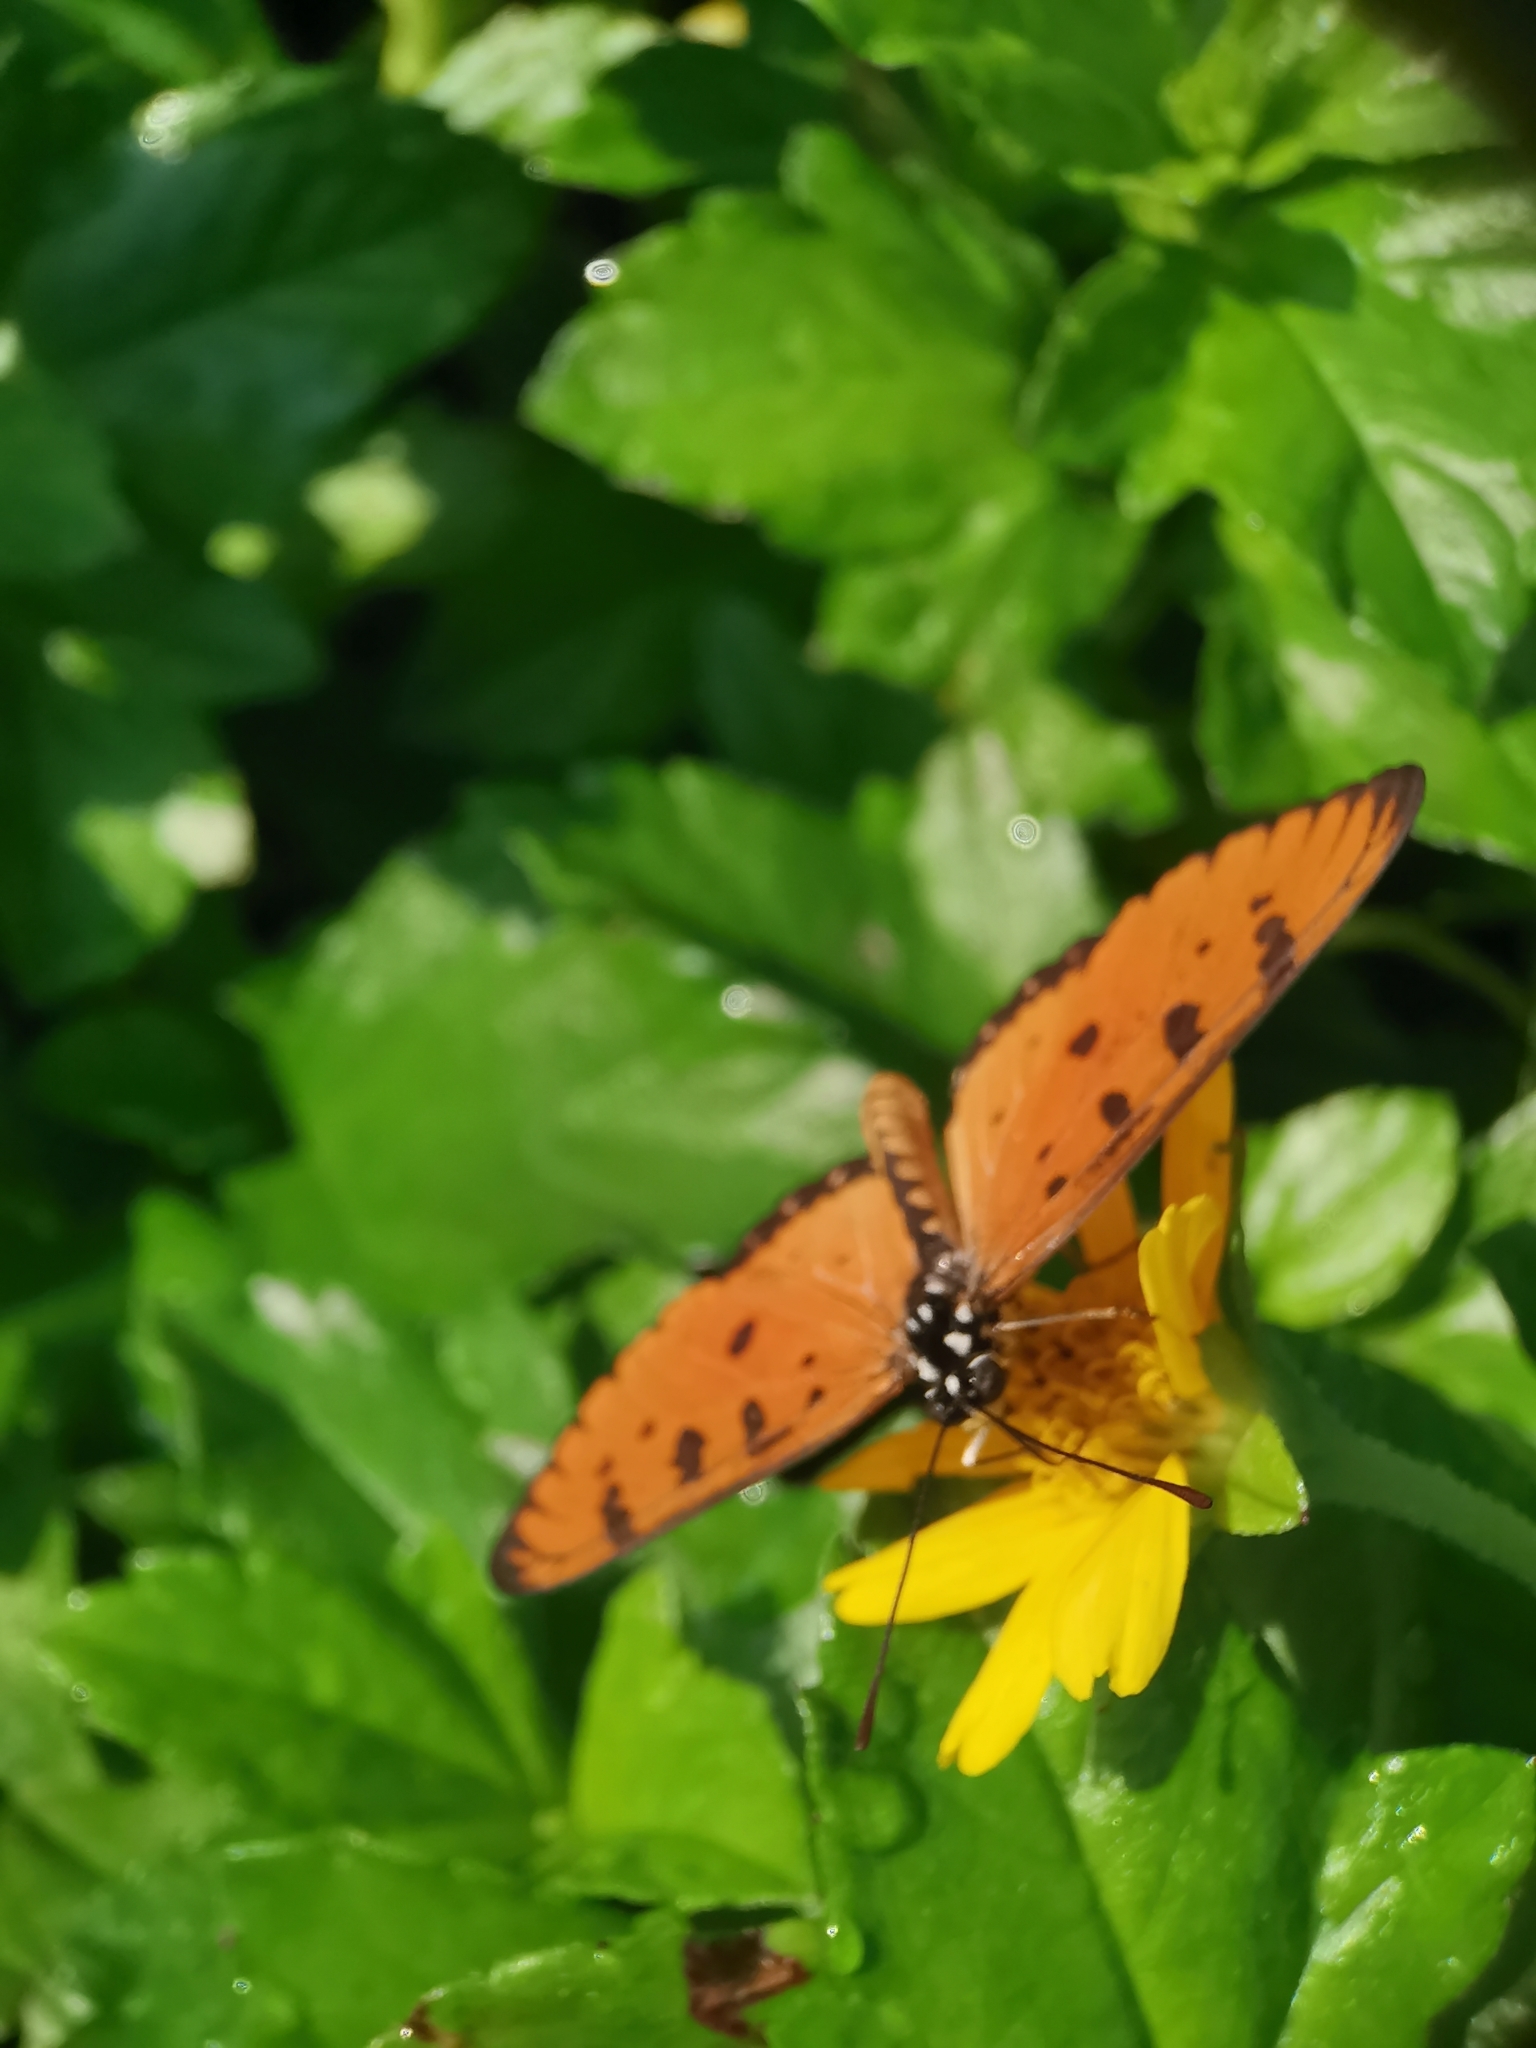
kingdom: Animalia
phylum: Arthropoda
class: Insecta
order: Lepidoptera
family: Nymphalidae
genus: Acraea
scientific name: Acraea terpsicore
